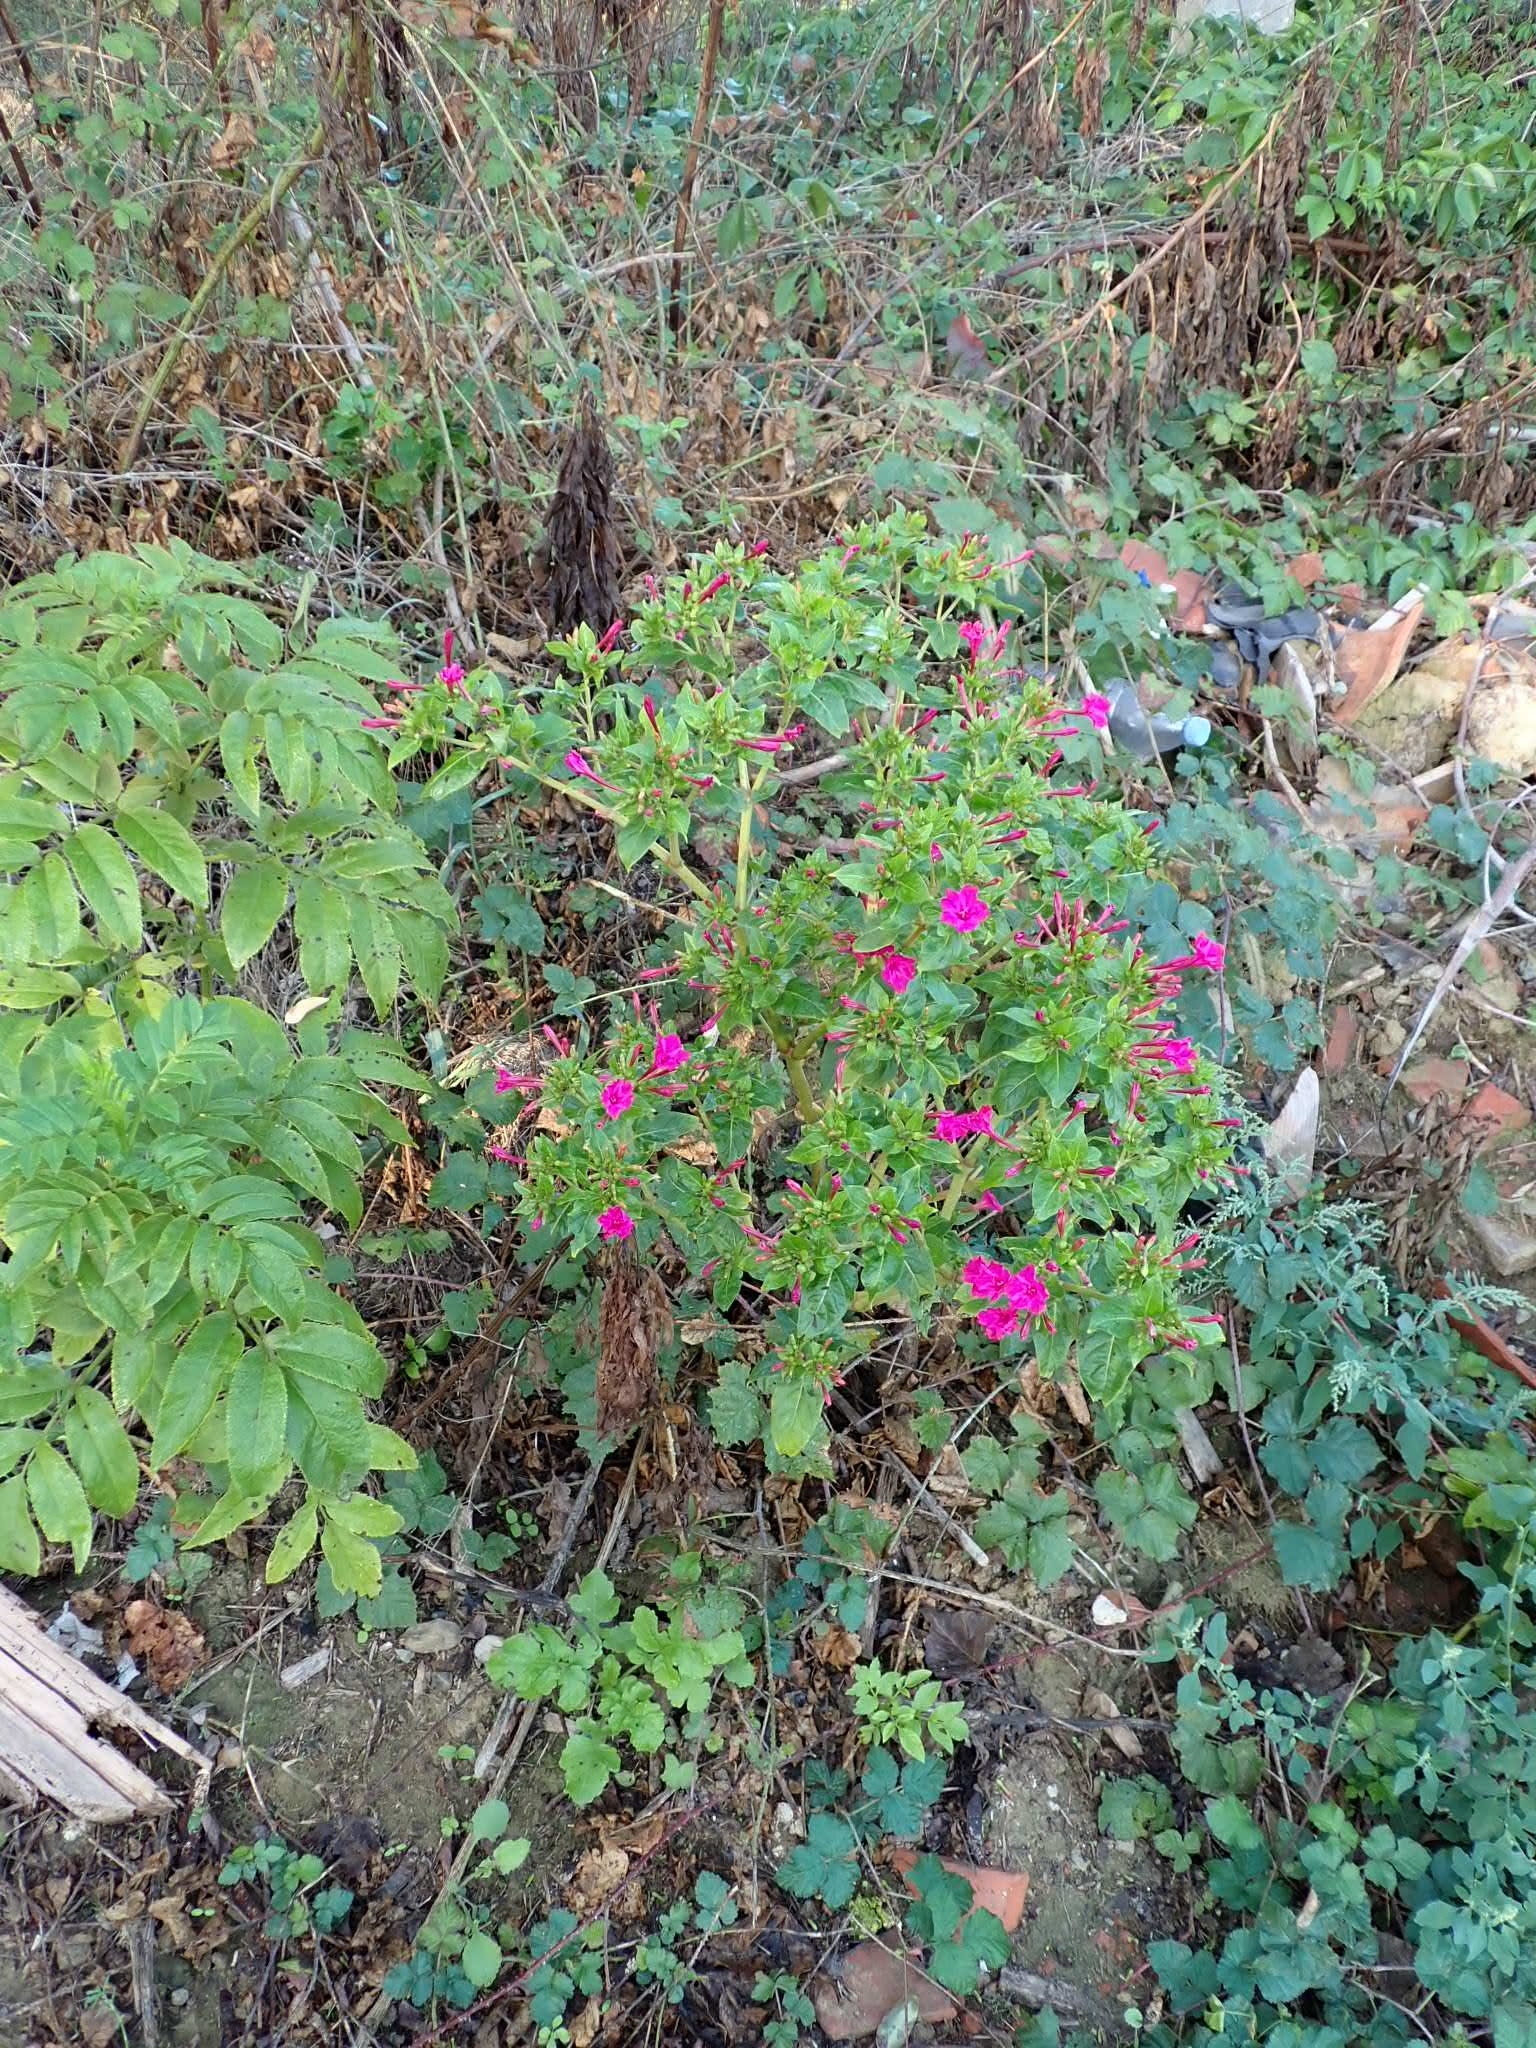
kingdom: Plantae
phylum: Tracheophyta
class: Magnoliopsida
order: Caryophyllales
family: Nyctaginaceae
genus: Mirabilis
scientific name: Mirabilis jalapa
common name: Marvel-of-peru
